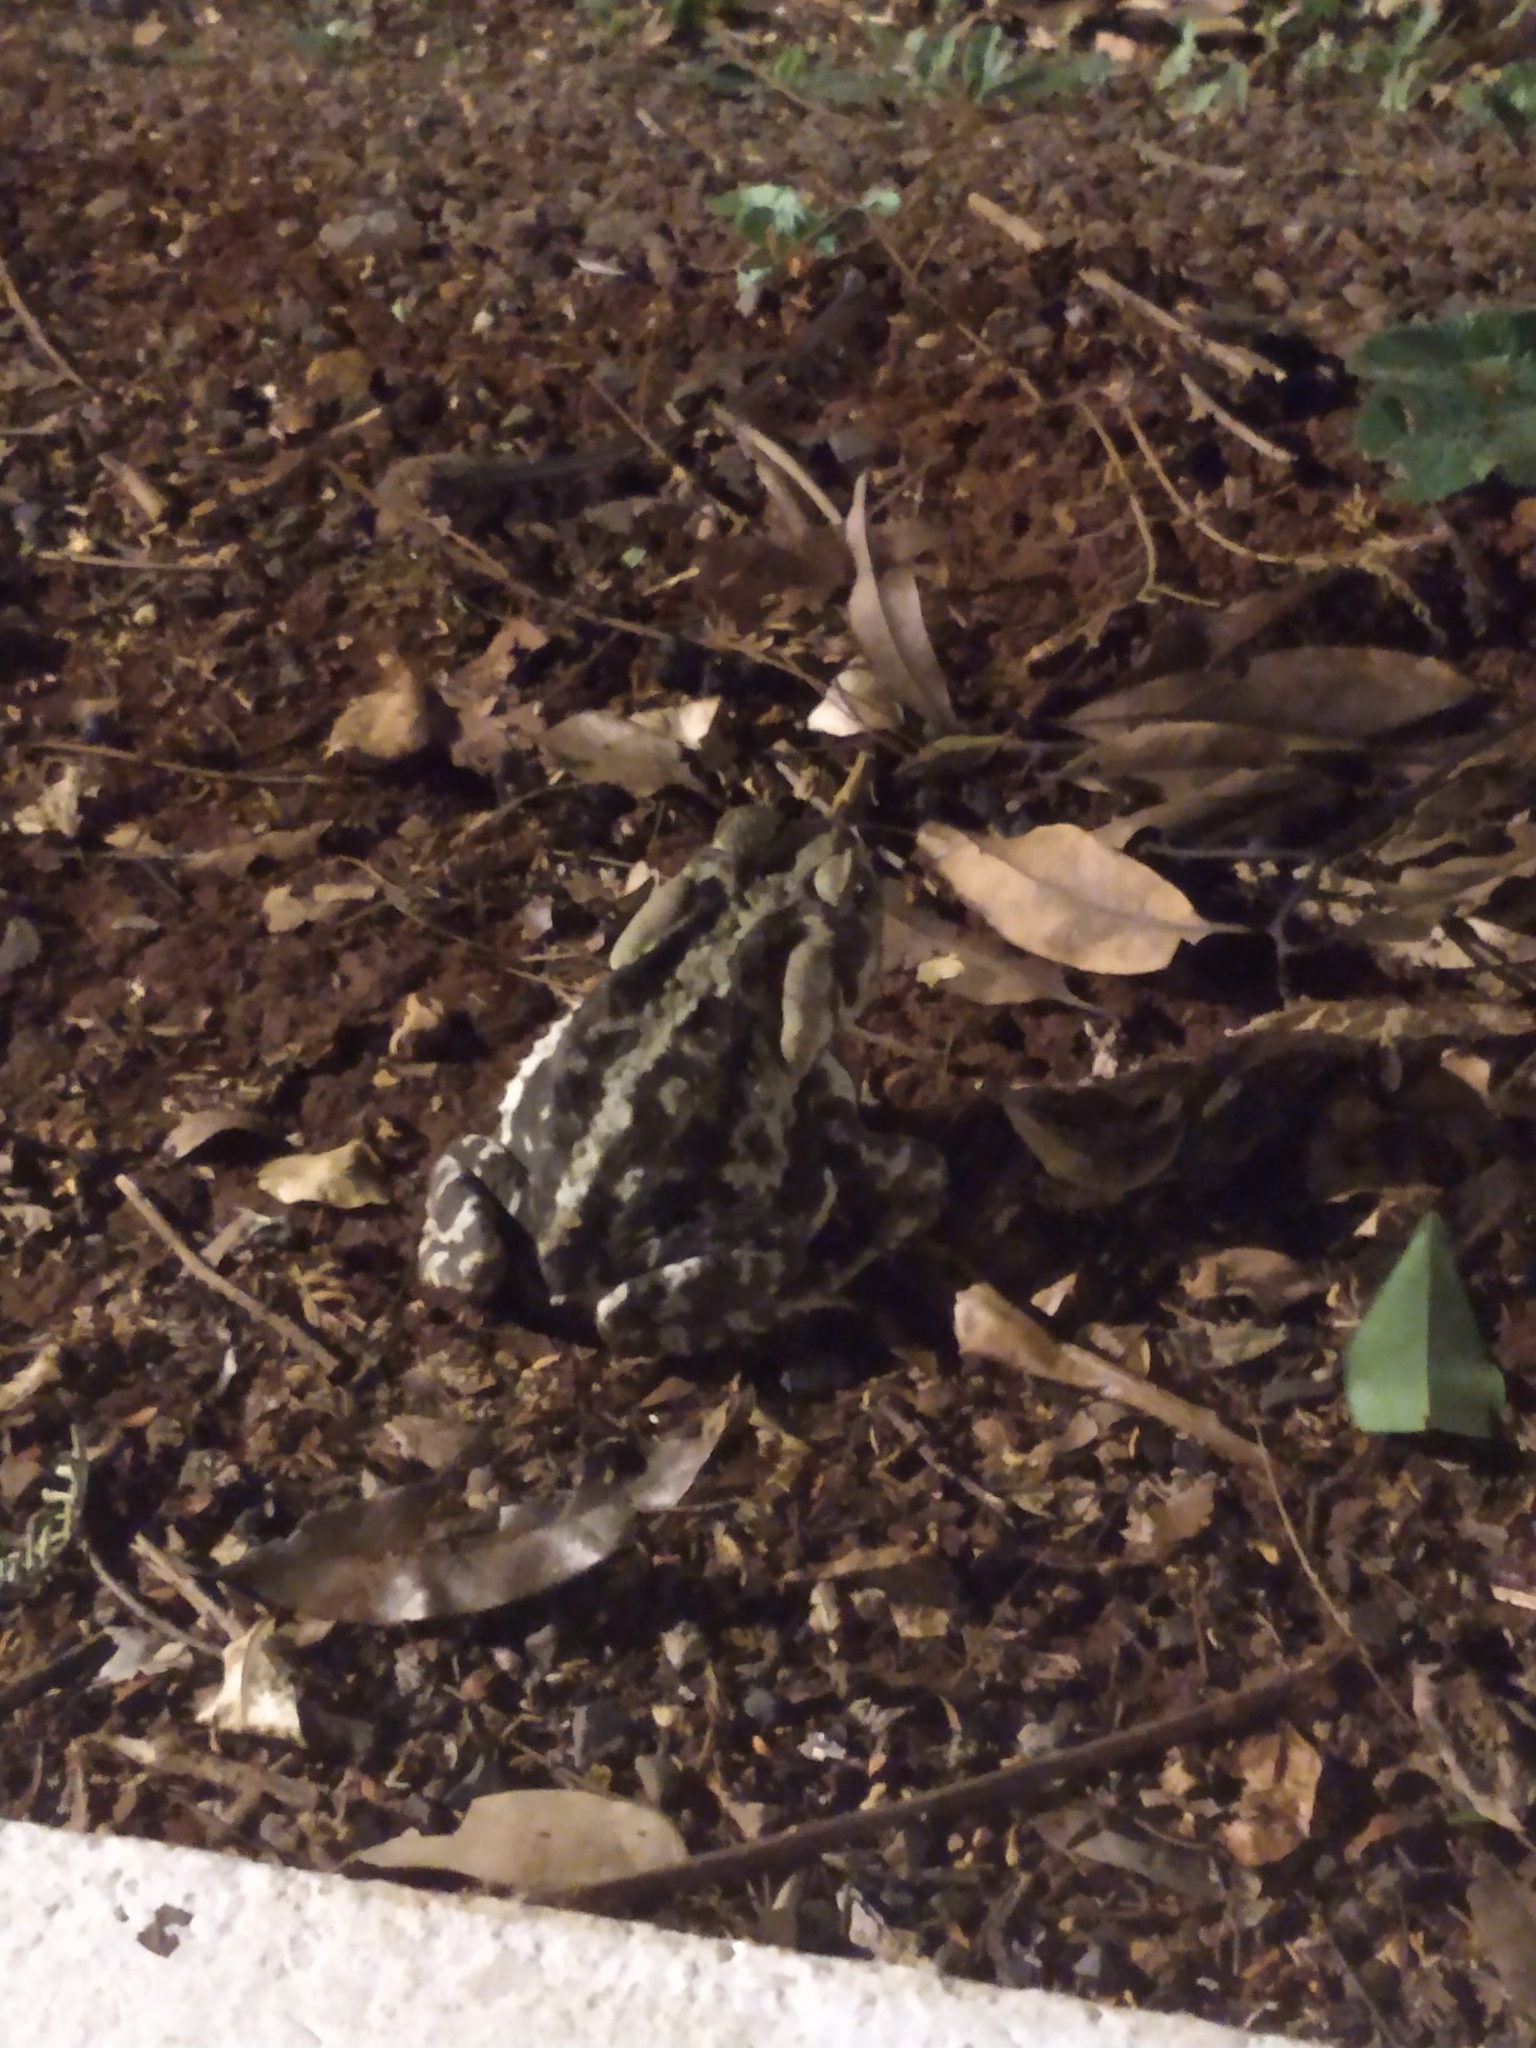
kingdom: Animalia
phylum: Chordata
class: Amphibia
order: Anura
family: Bufonidae
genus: Rhinella
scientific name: Rhinella icterica
